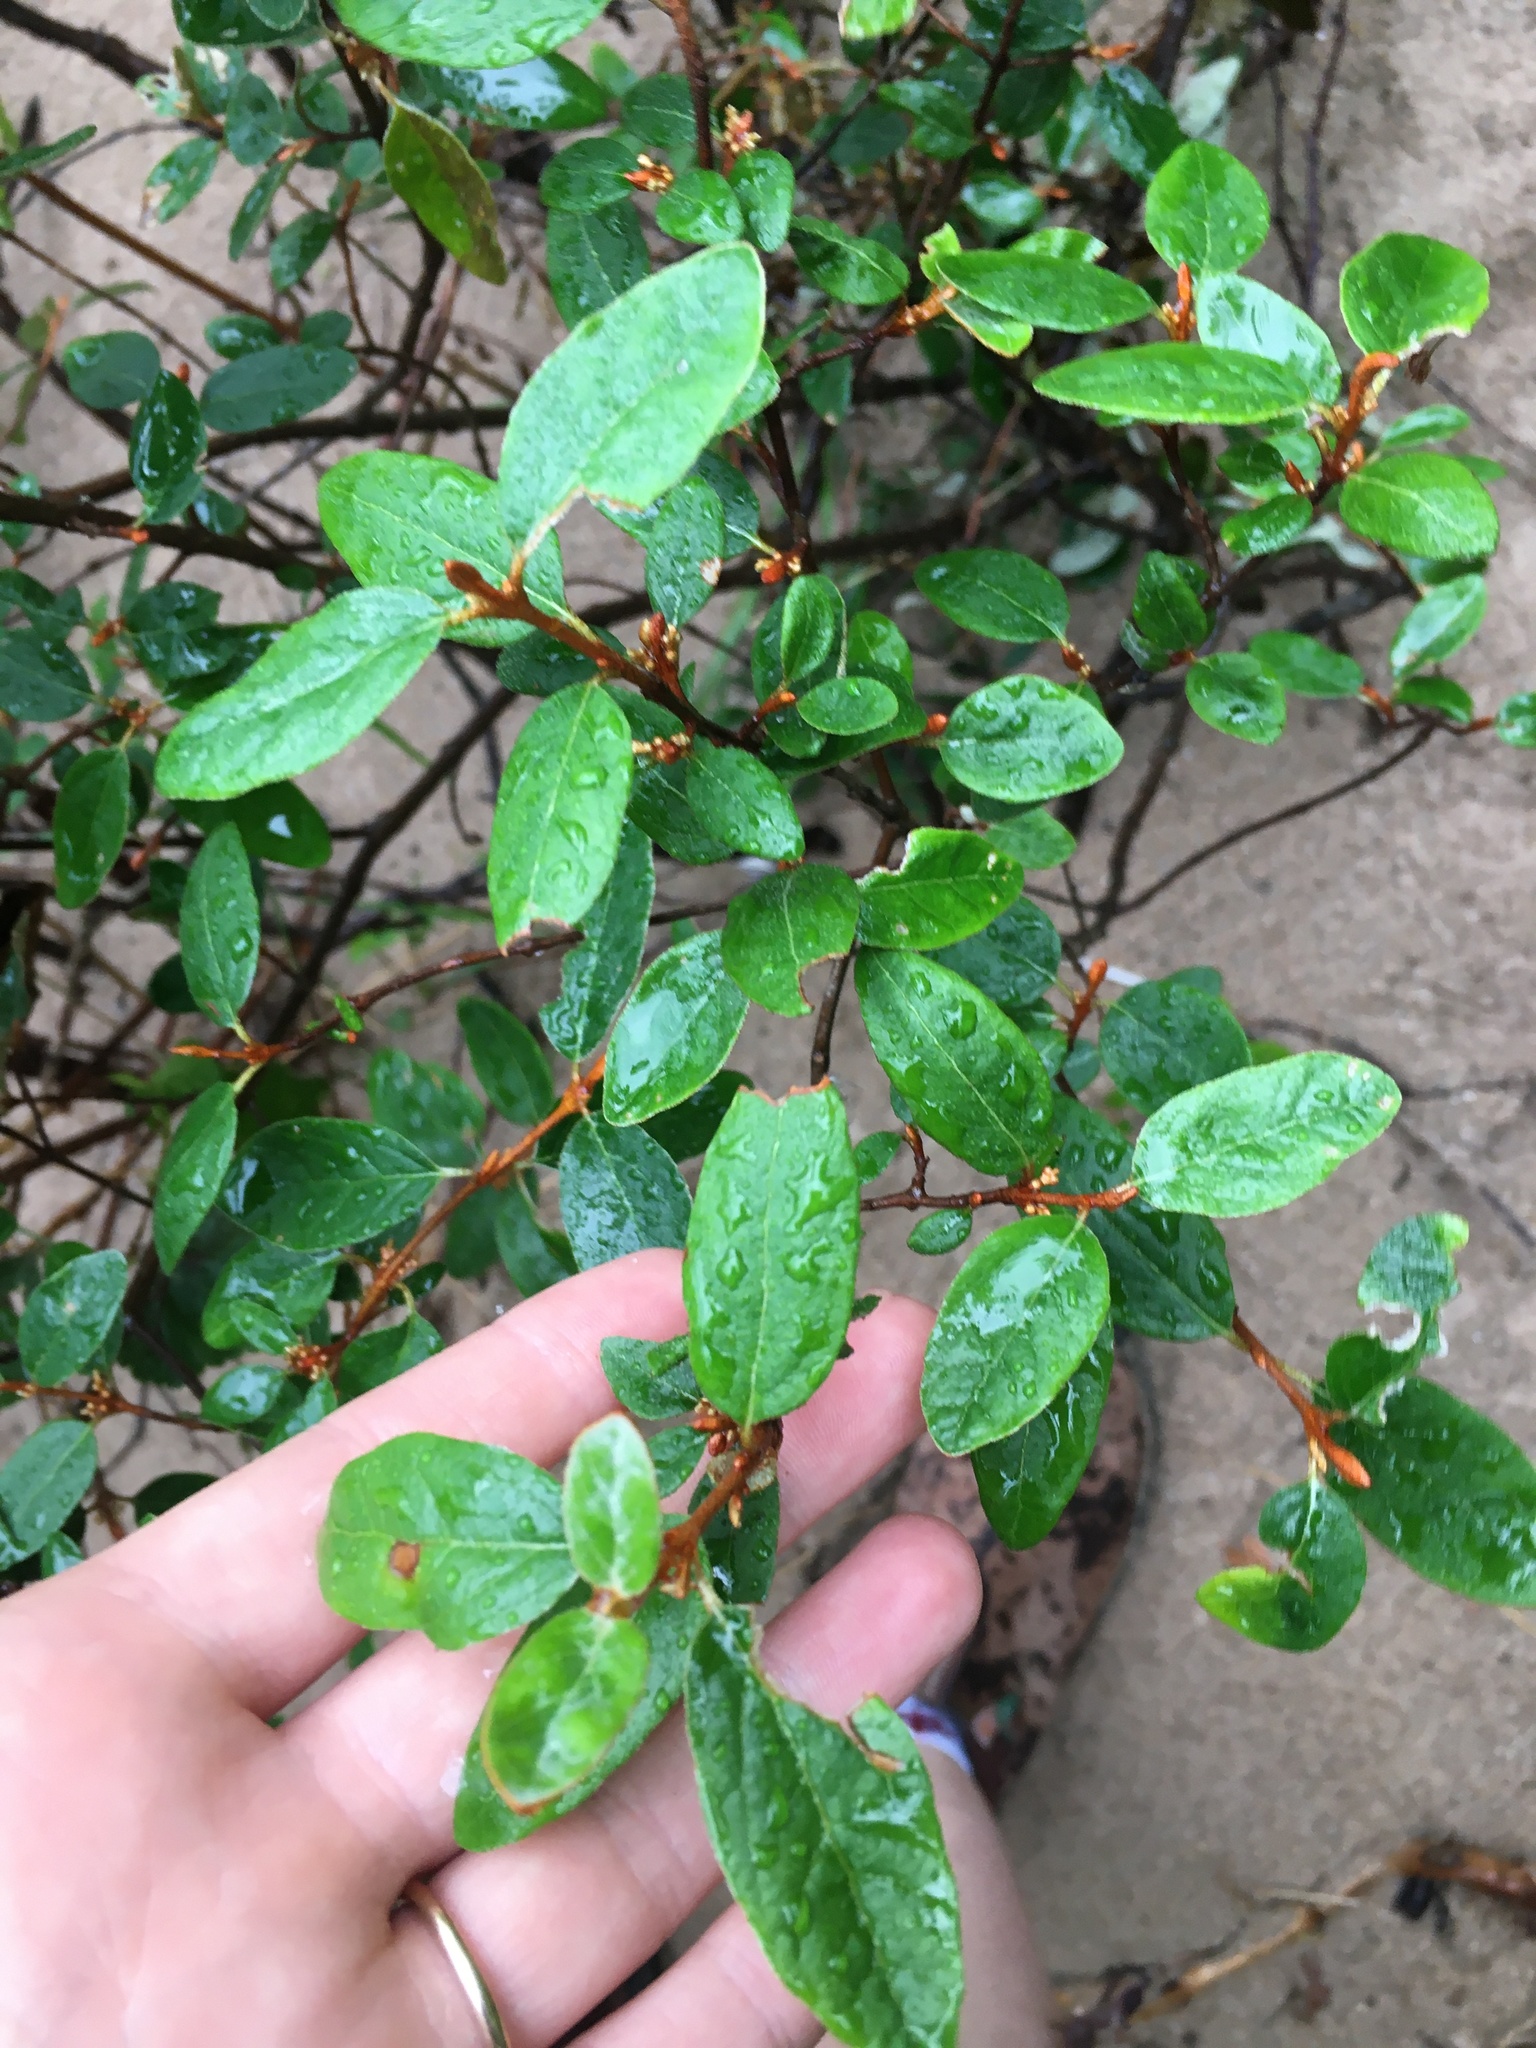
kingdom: Plantae
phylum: Tracheophyta
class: Magnoliopsida
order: Rosales
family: Elaeagnaceae
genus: Shepherdia
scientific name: Shepherdia canadensis
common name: Soapberry
